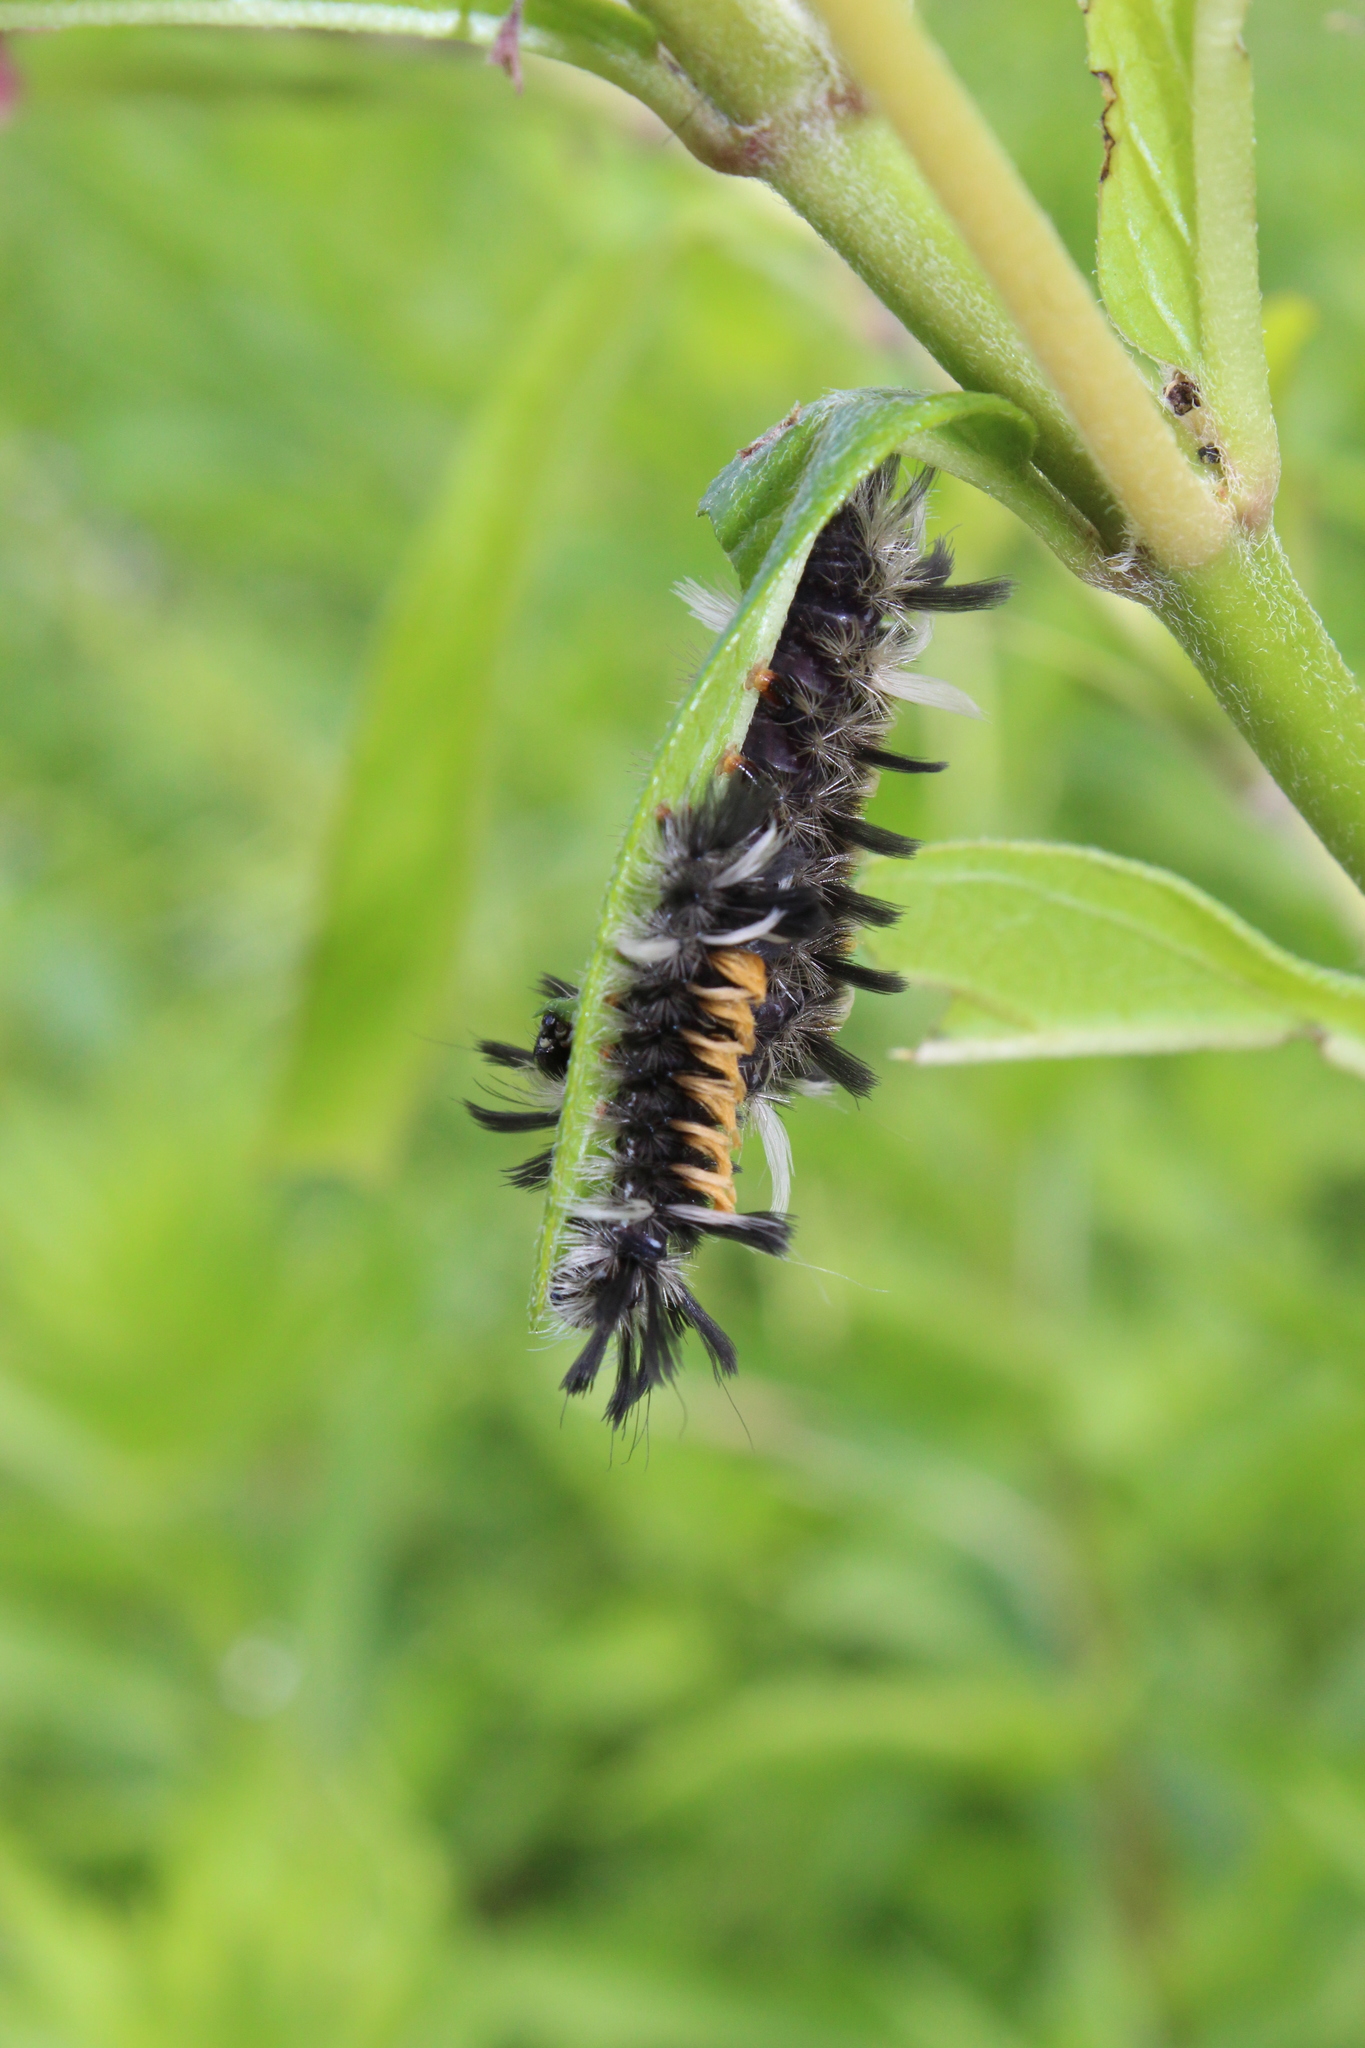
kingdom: Animalia
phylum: Arthropoda
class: Insecta
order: Lepidoptera
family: Erebidae
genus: Euchaetes
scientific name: Euchaetes egle
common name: Milkweed tussock moth
